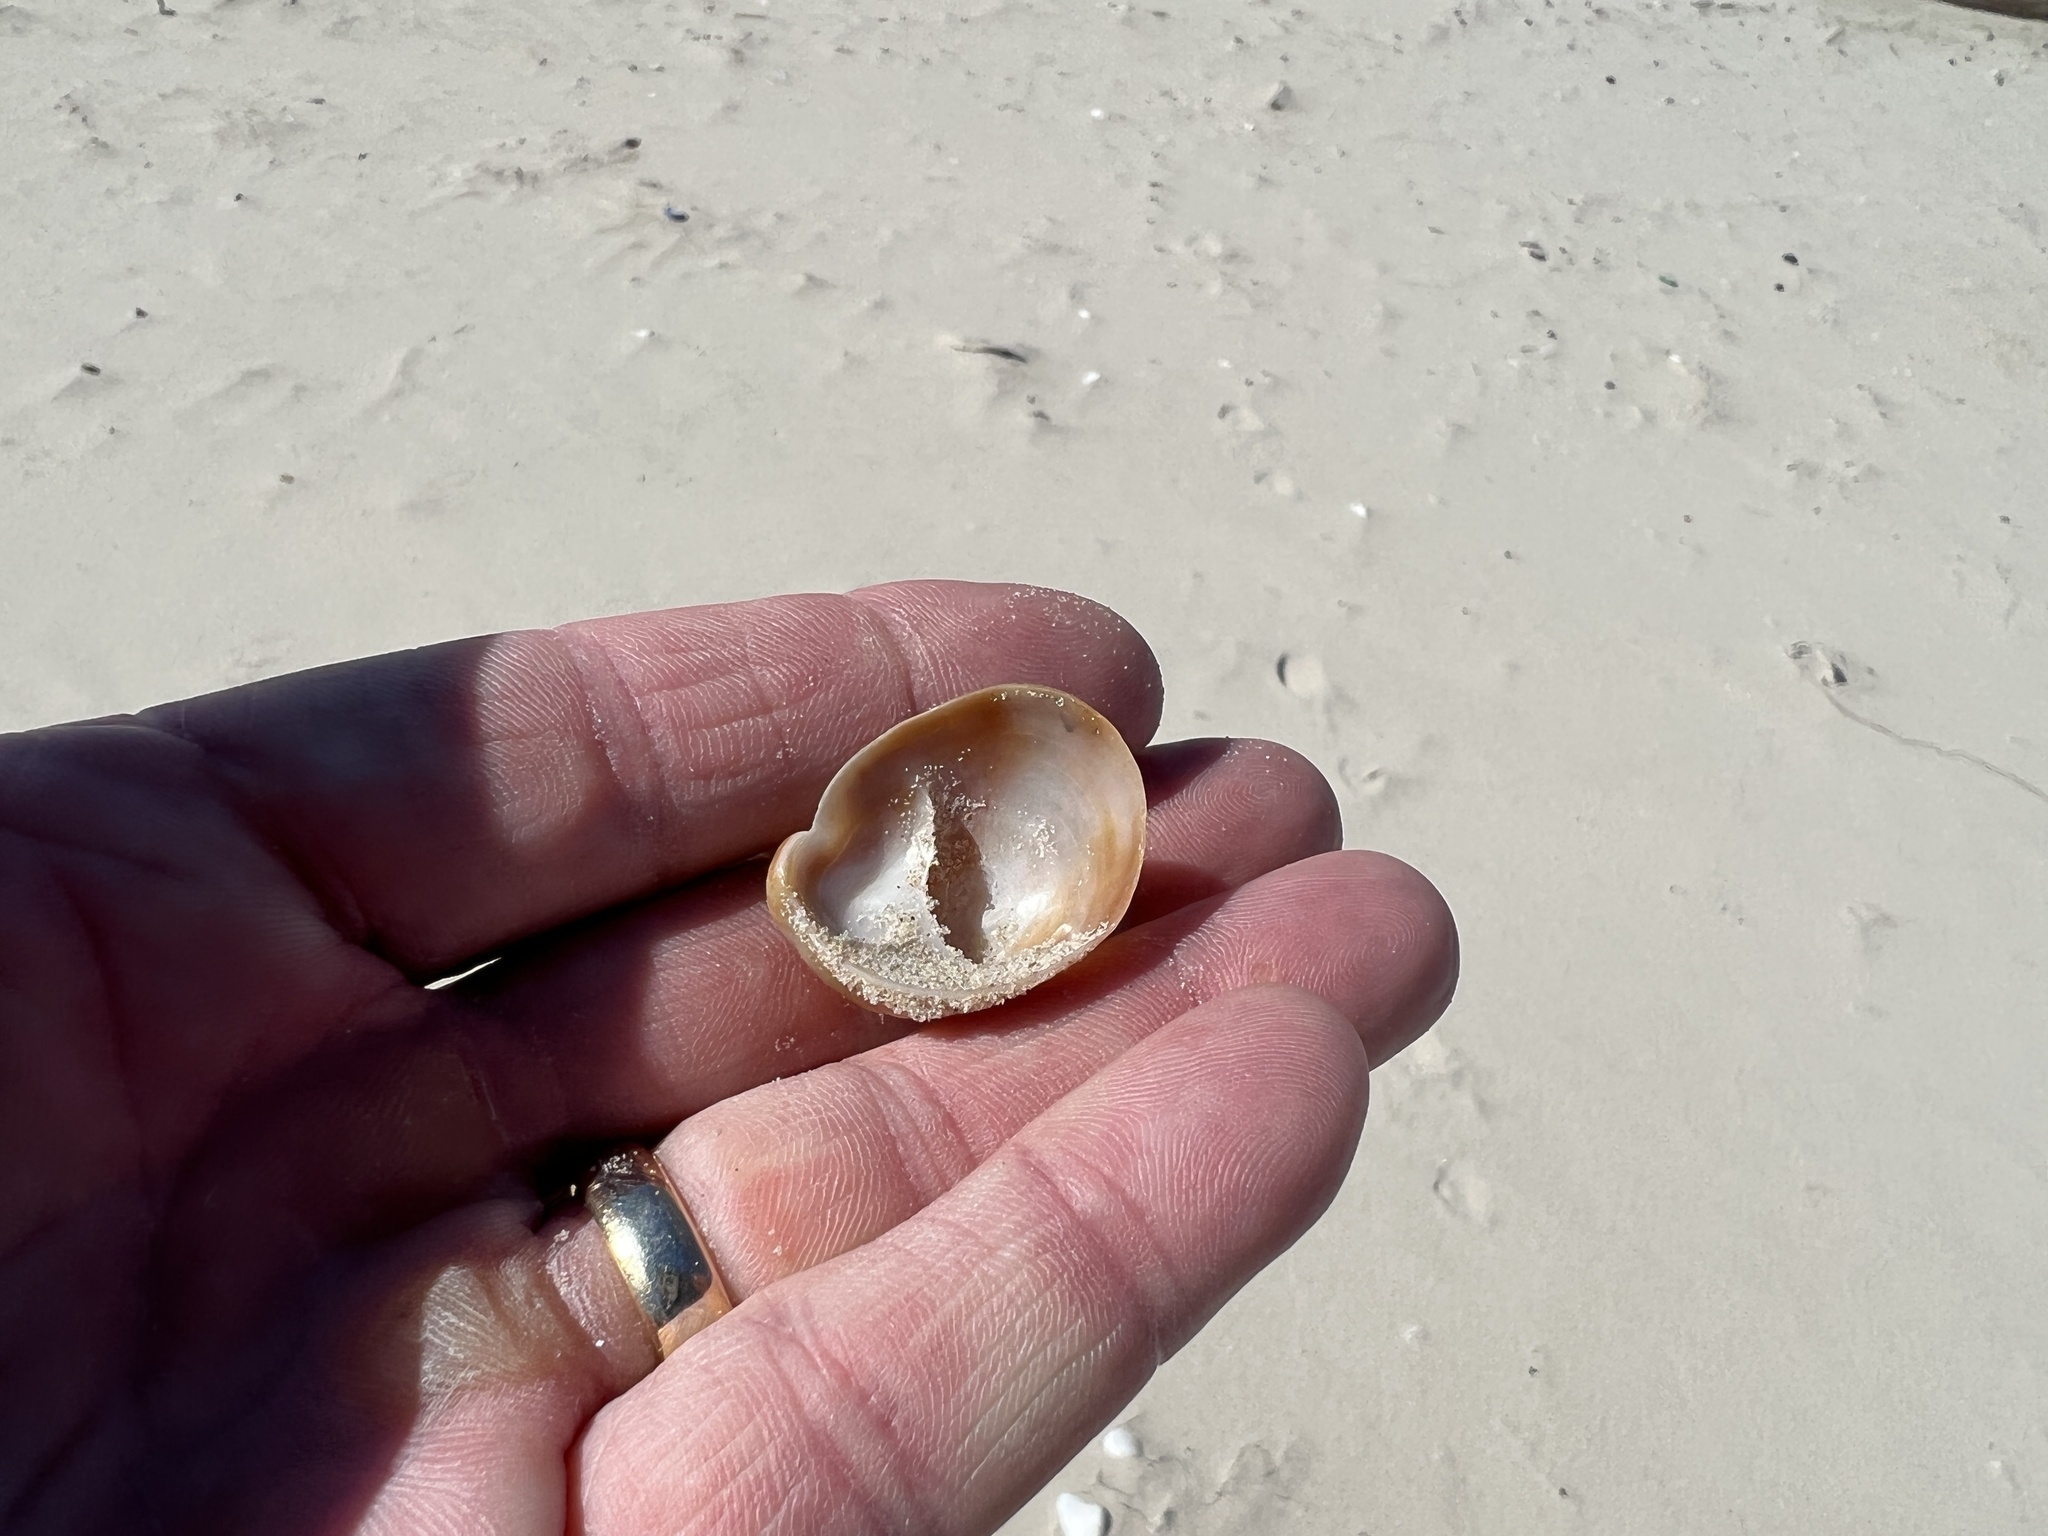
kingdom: Animalia
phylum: Mollusca
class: Gastropoda
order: Littorinimorpha
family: Calyptraeidae
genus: Crepidula
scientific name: Crepidula fornicata
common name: Slipper limpet
